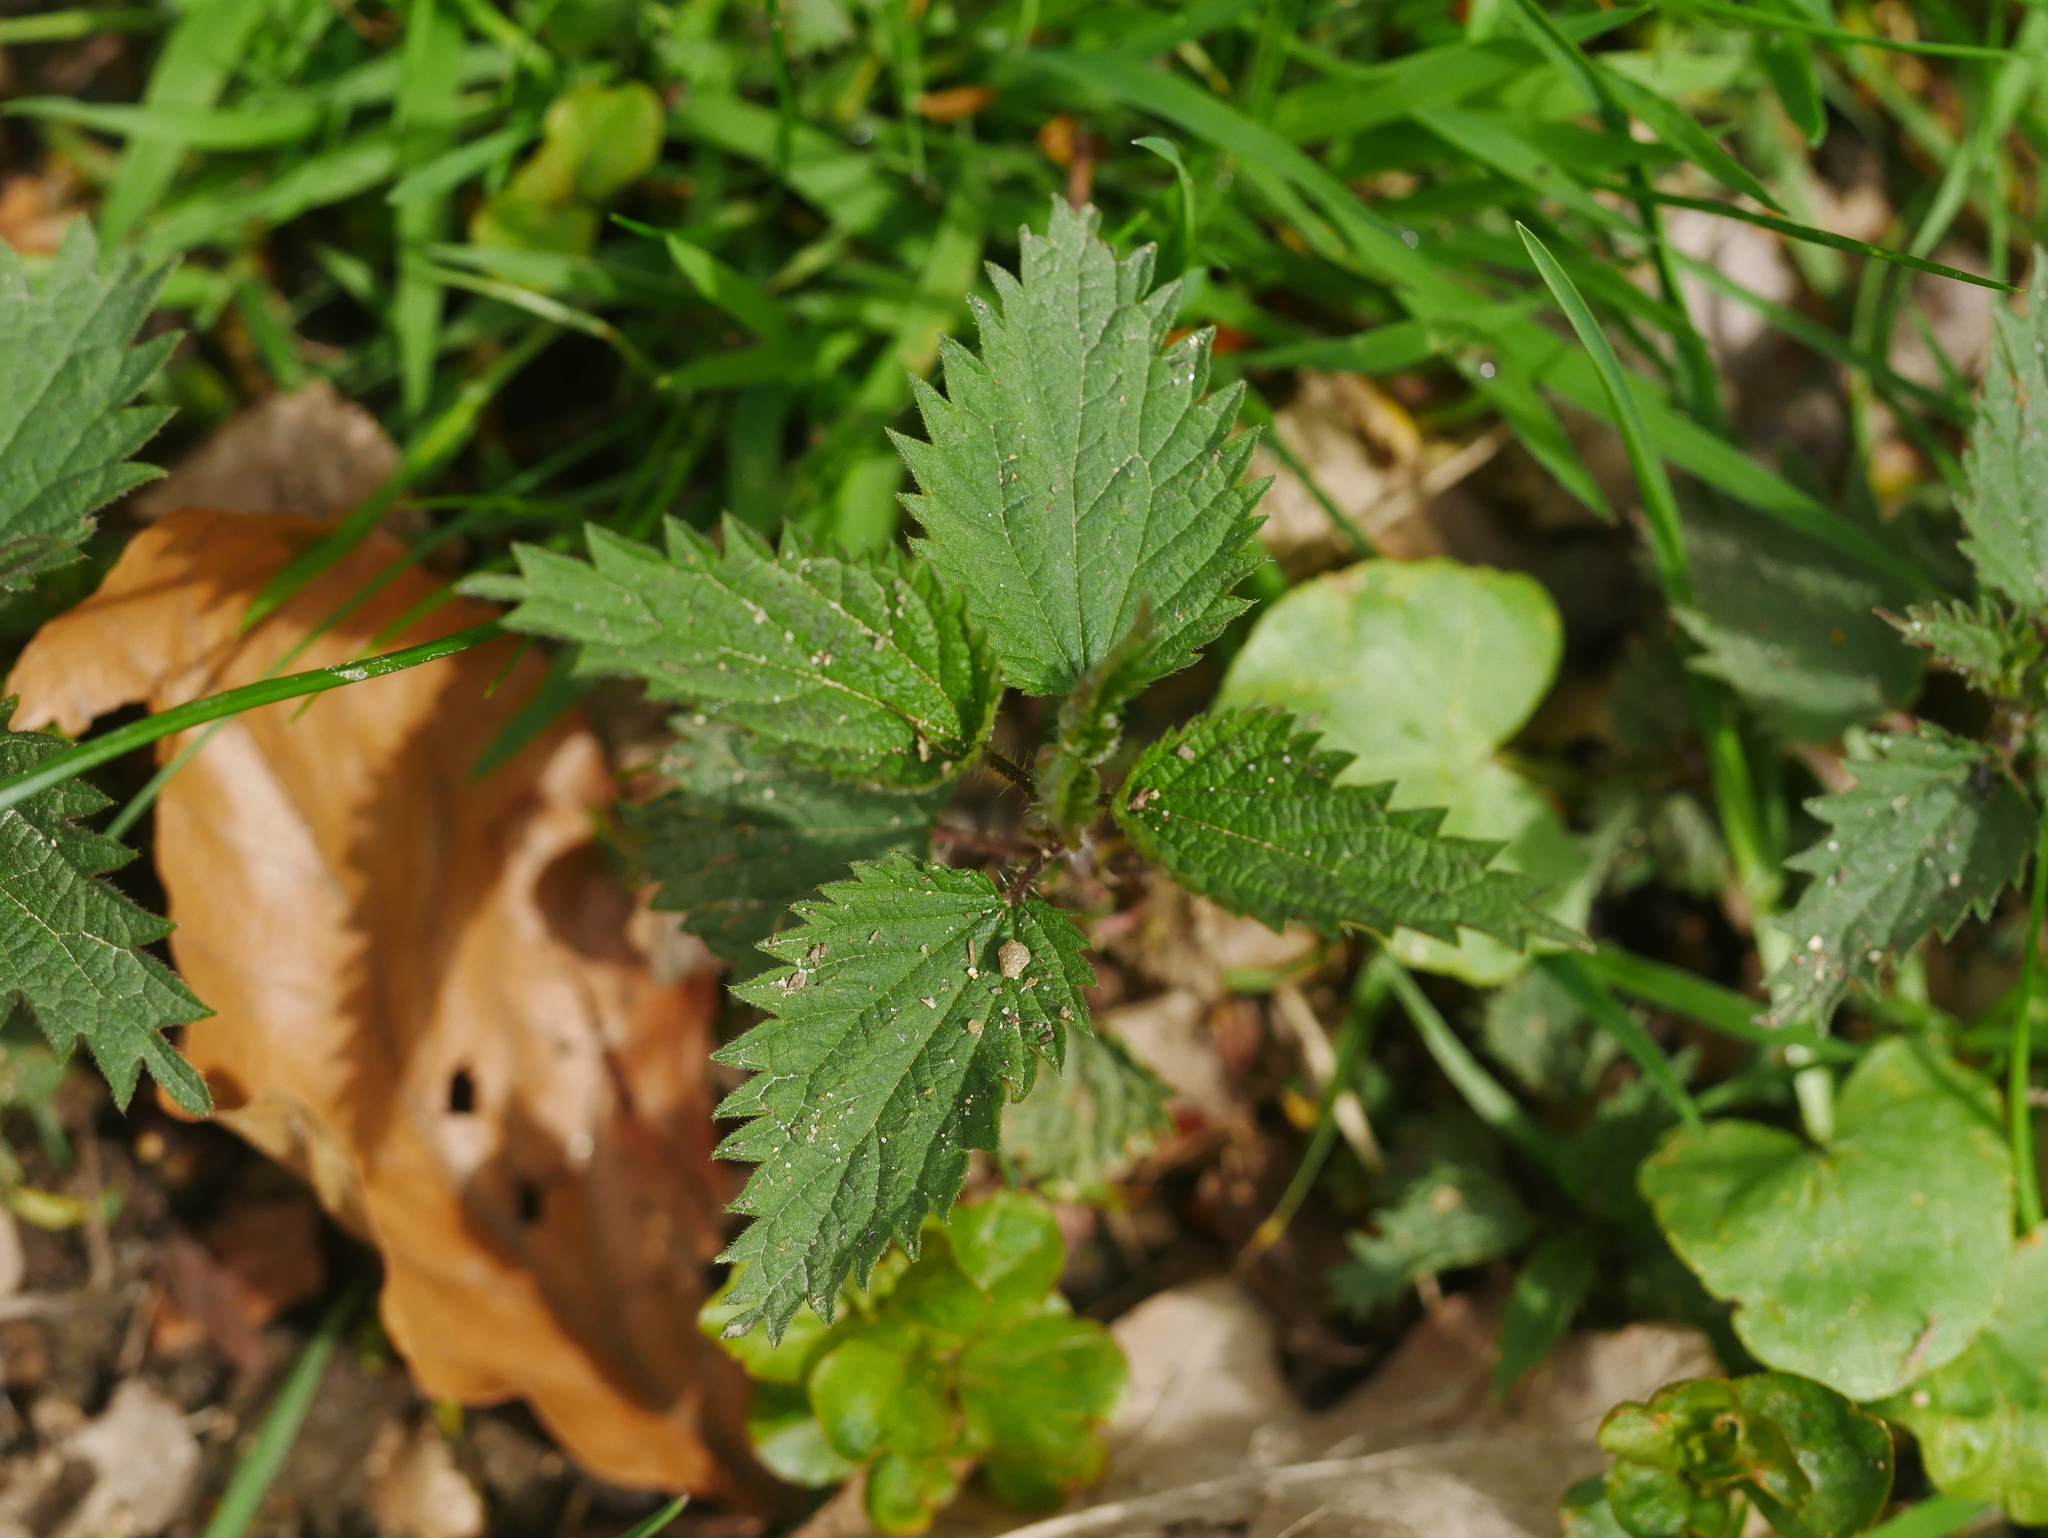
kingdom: Plantae
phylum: Tracheophyta
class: Magnoliopsida
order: Rosales
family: Urticaceae
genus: Urtica
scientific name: Urtica dioica
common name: Common nettle
